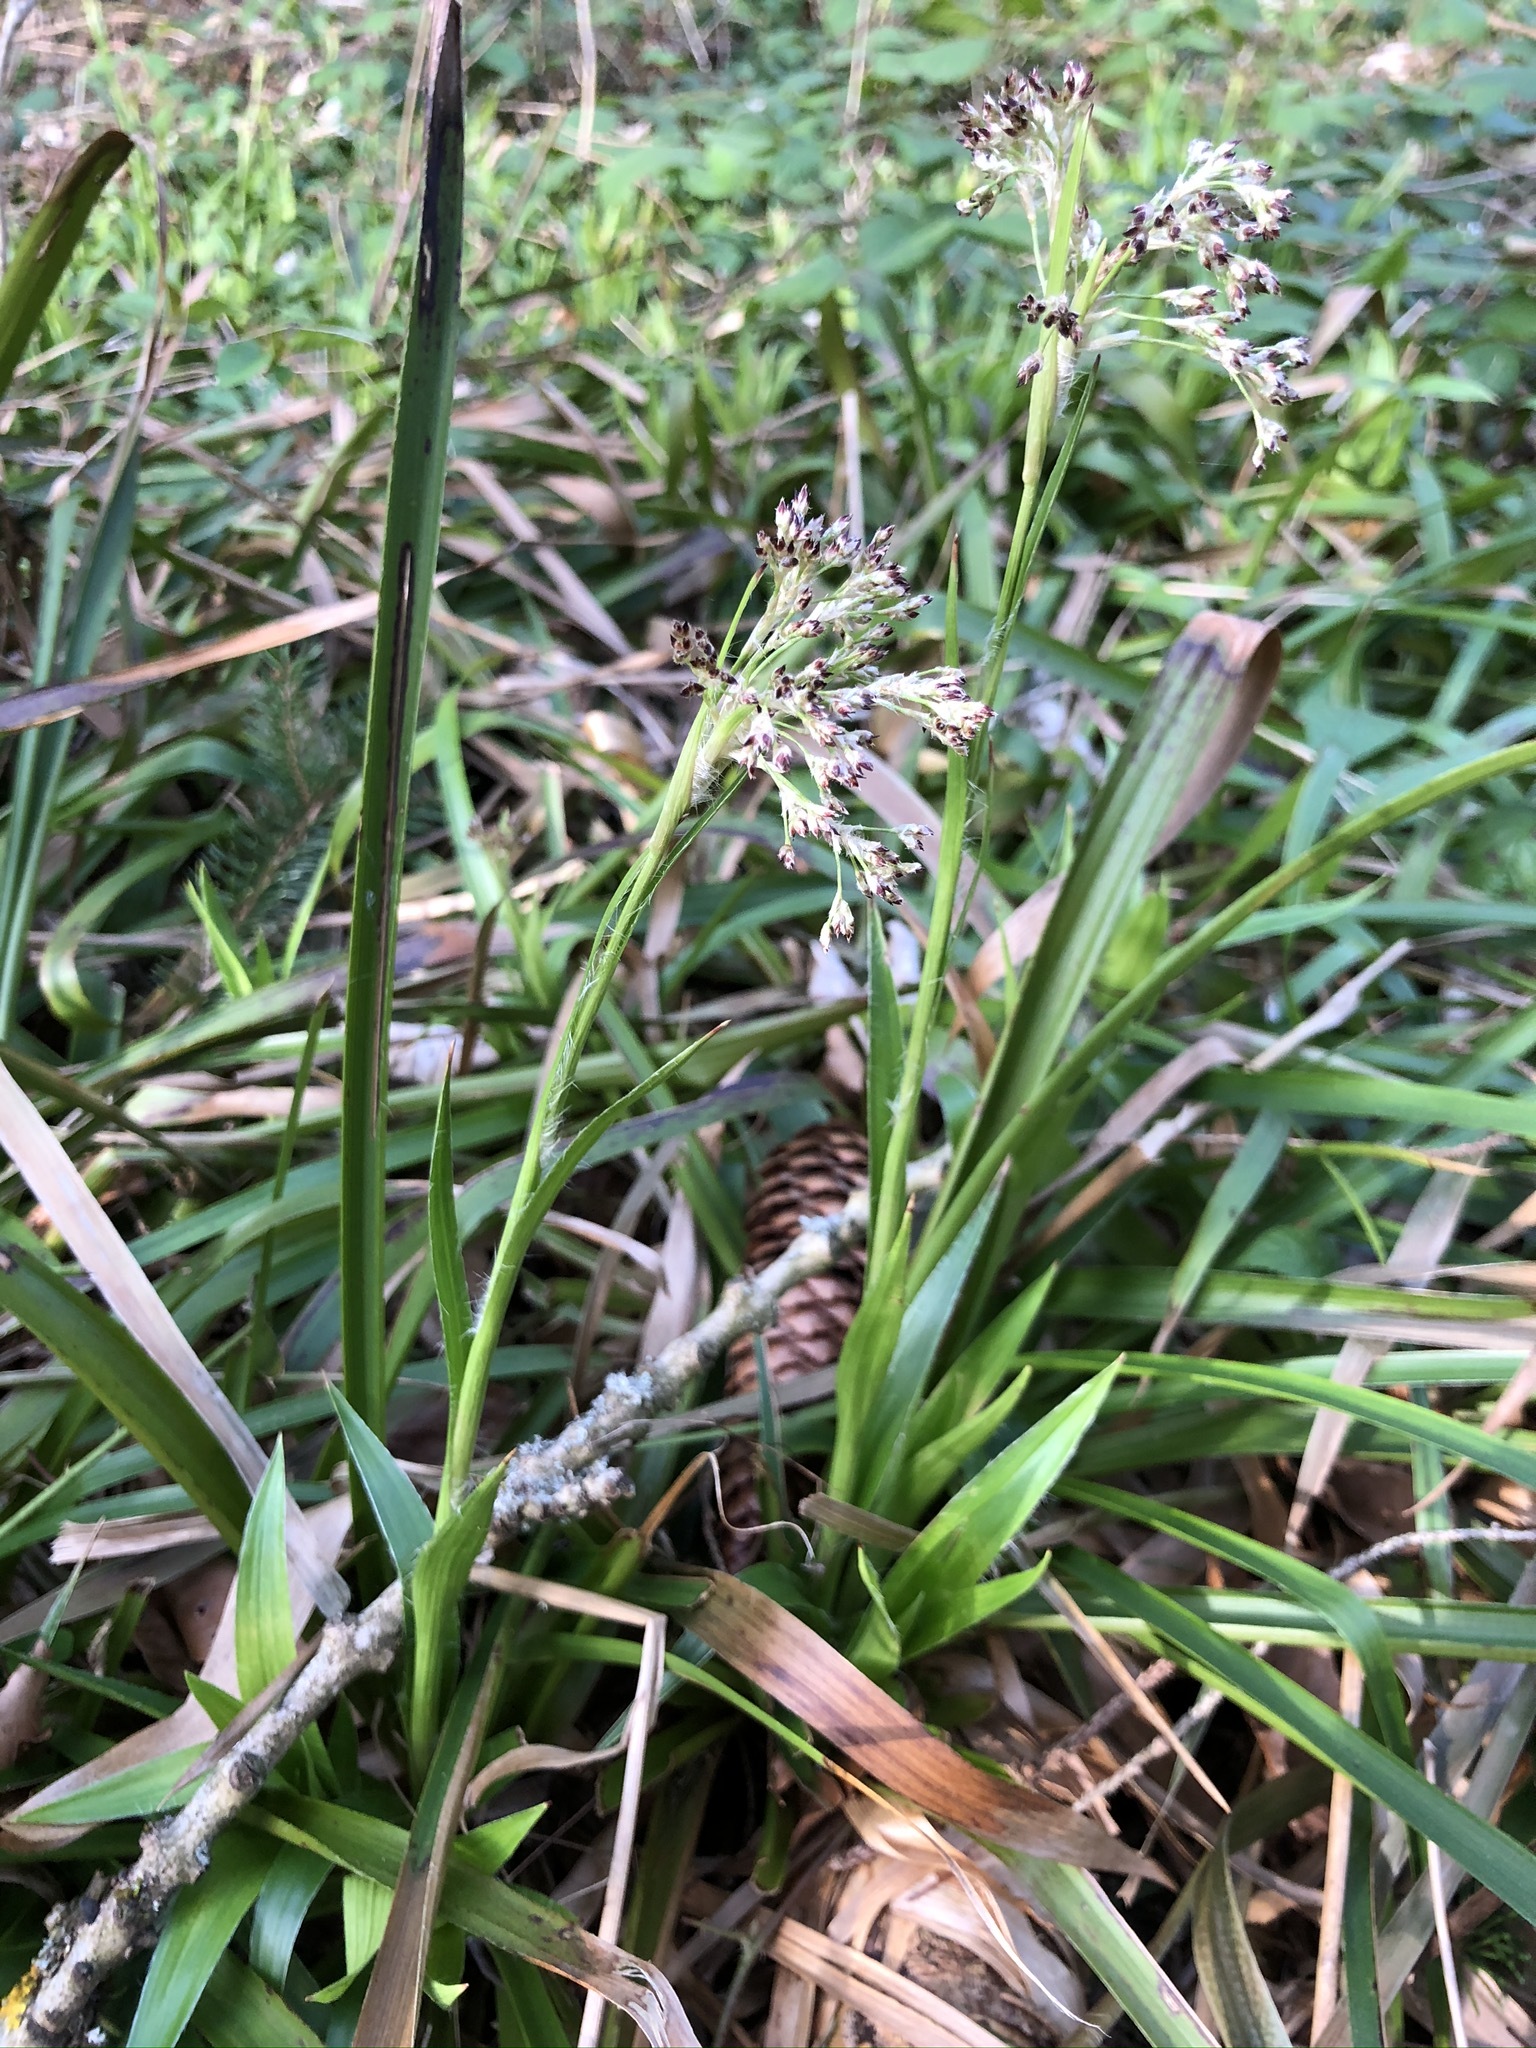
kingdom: Plantae
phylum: Tracheophyta
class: Liliopsida
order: Poales
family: Juncaceae
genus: Luzula
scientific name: Luzula sylvatica
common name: Great wood-rush
